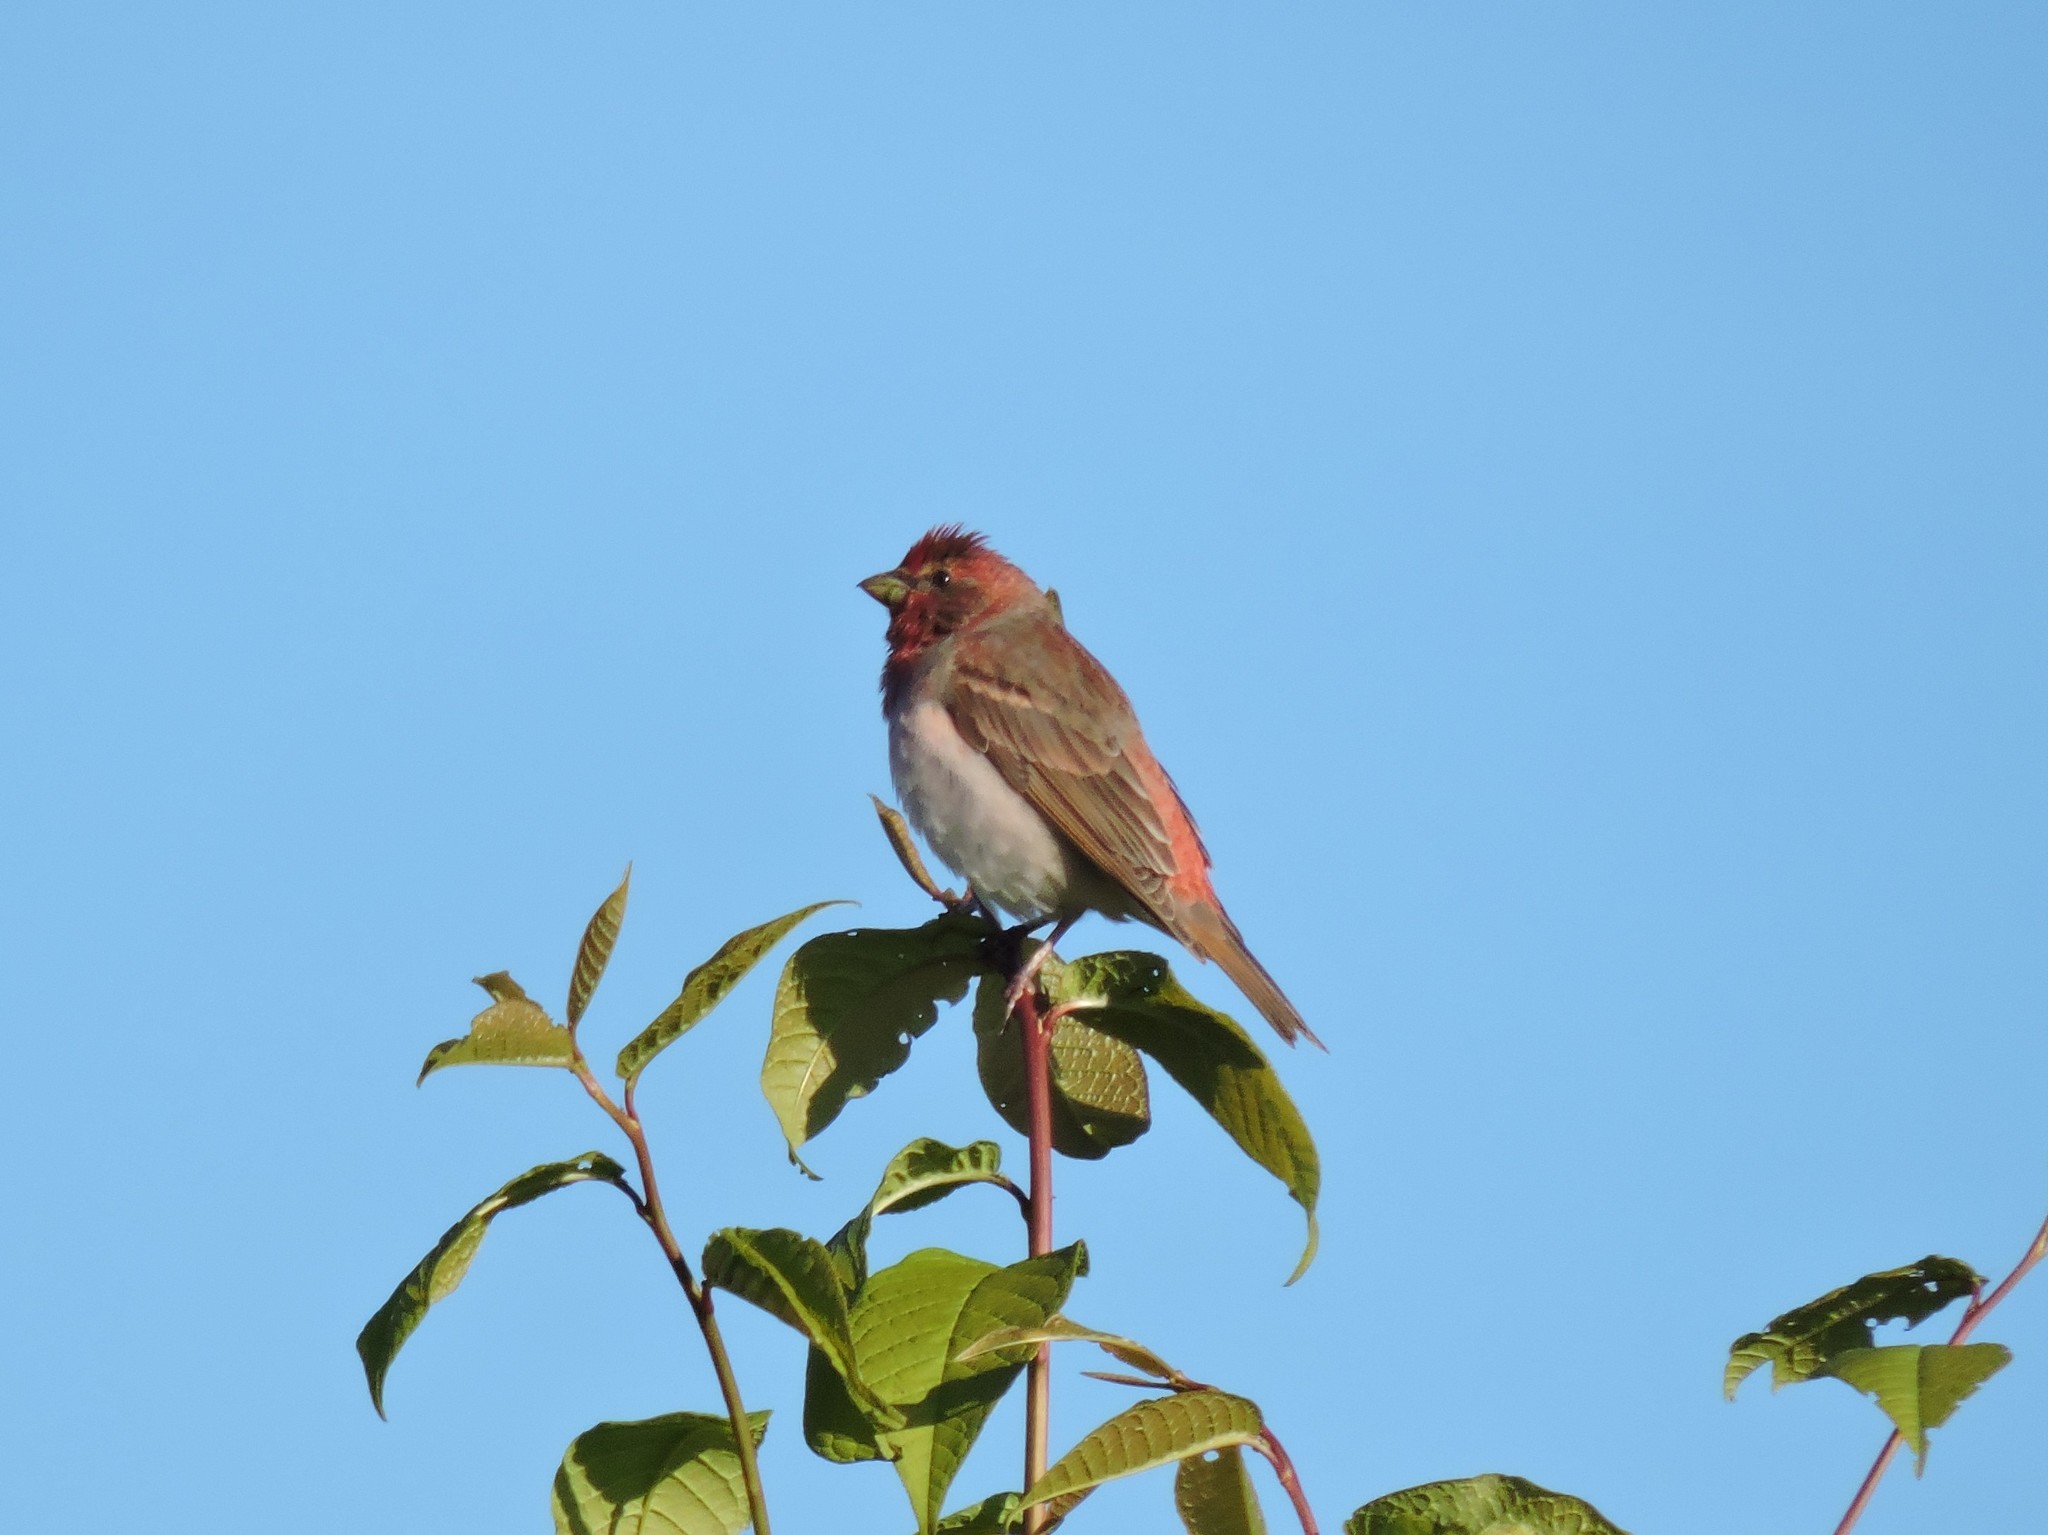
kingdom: Animalia
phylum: Chordata
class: Aves
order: Passeriformes
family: Fringillidae
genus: Carpodacus
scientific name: Carpodacus erythrinus
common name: Common rosefinch
